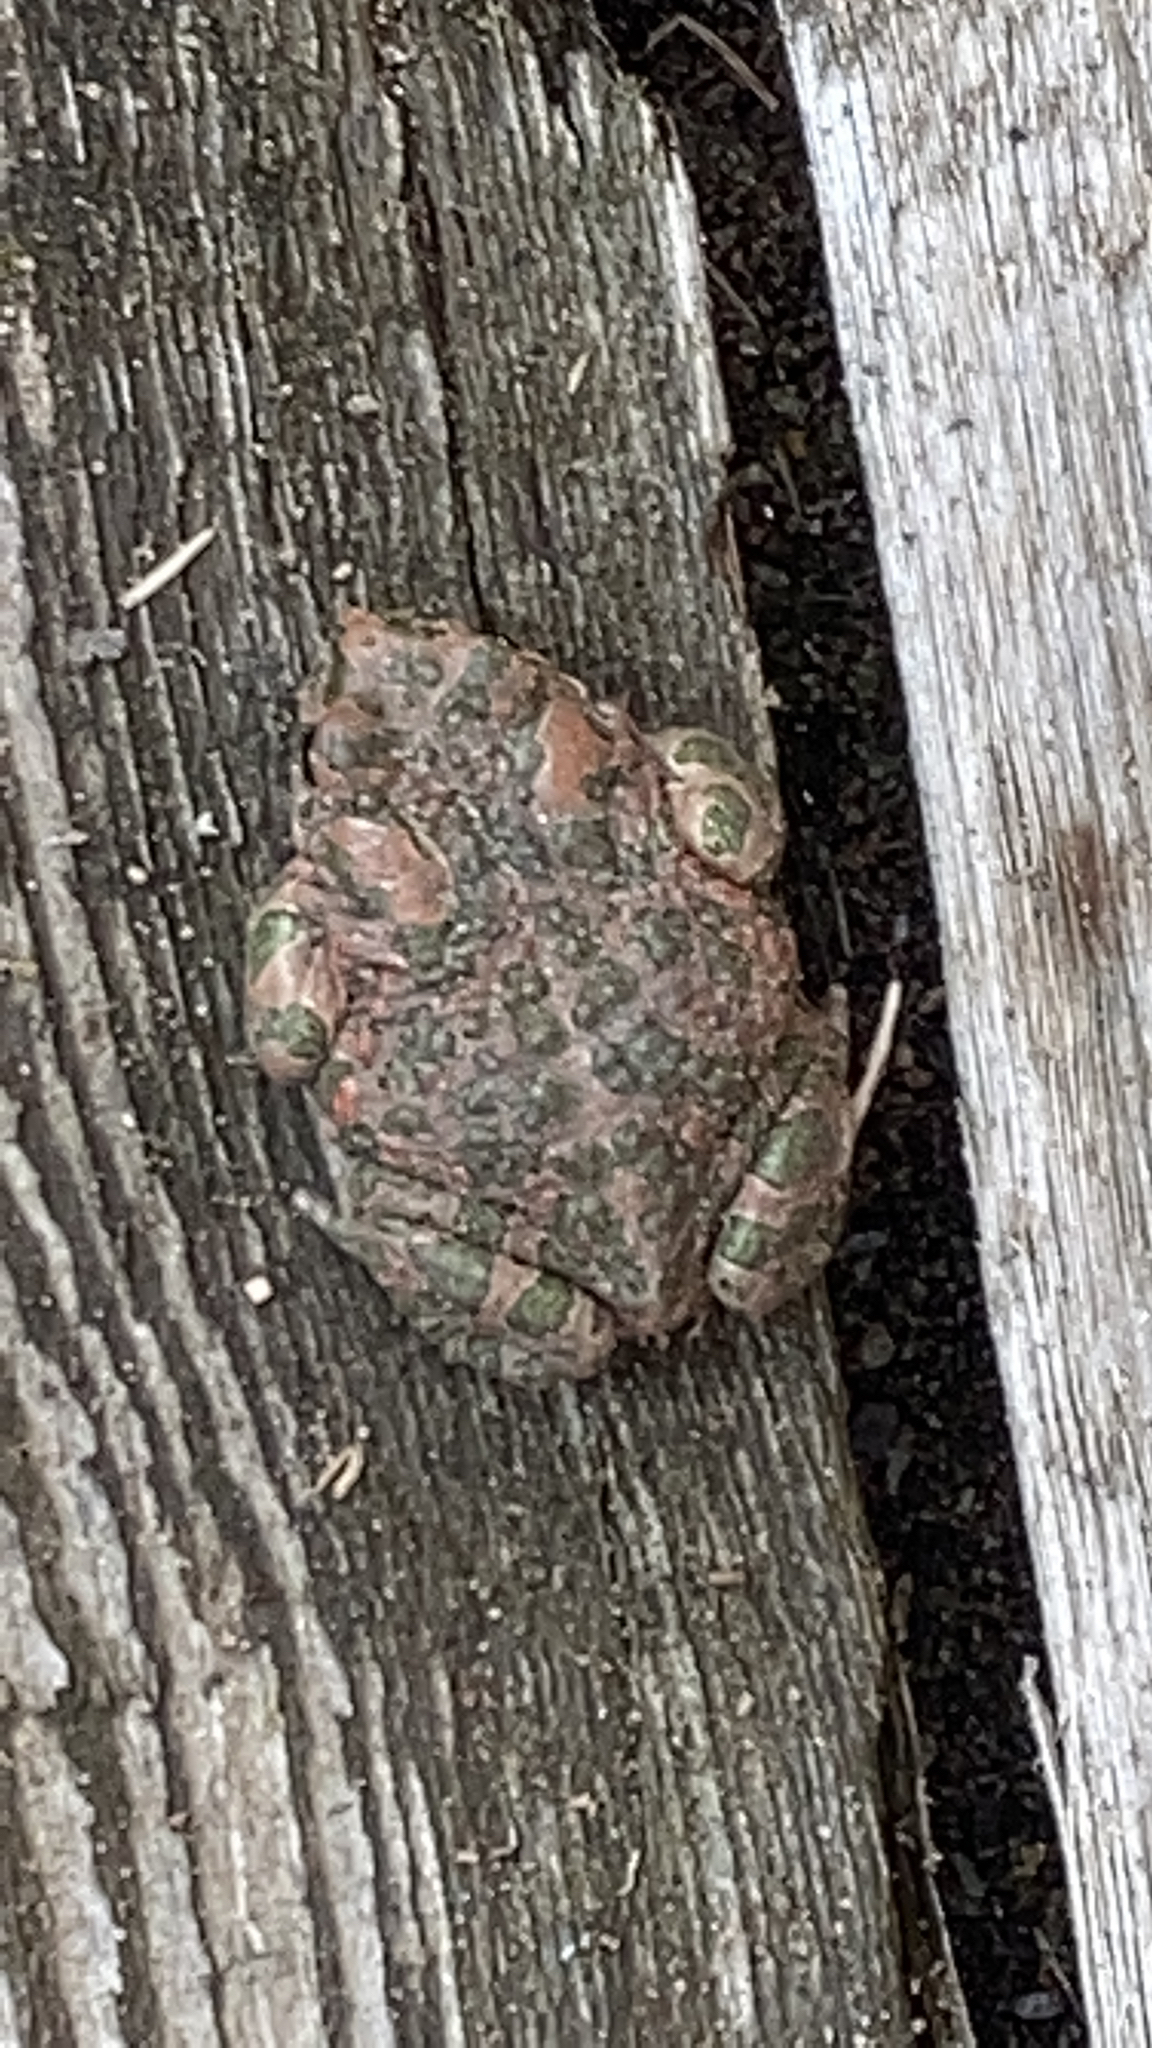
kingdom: Animalia
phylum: Chordata
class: Amphibia
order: Anura
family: Bufonidae
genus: Bufotes
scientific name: Bufotes viridis
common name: European green toad
